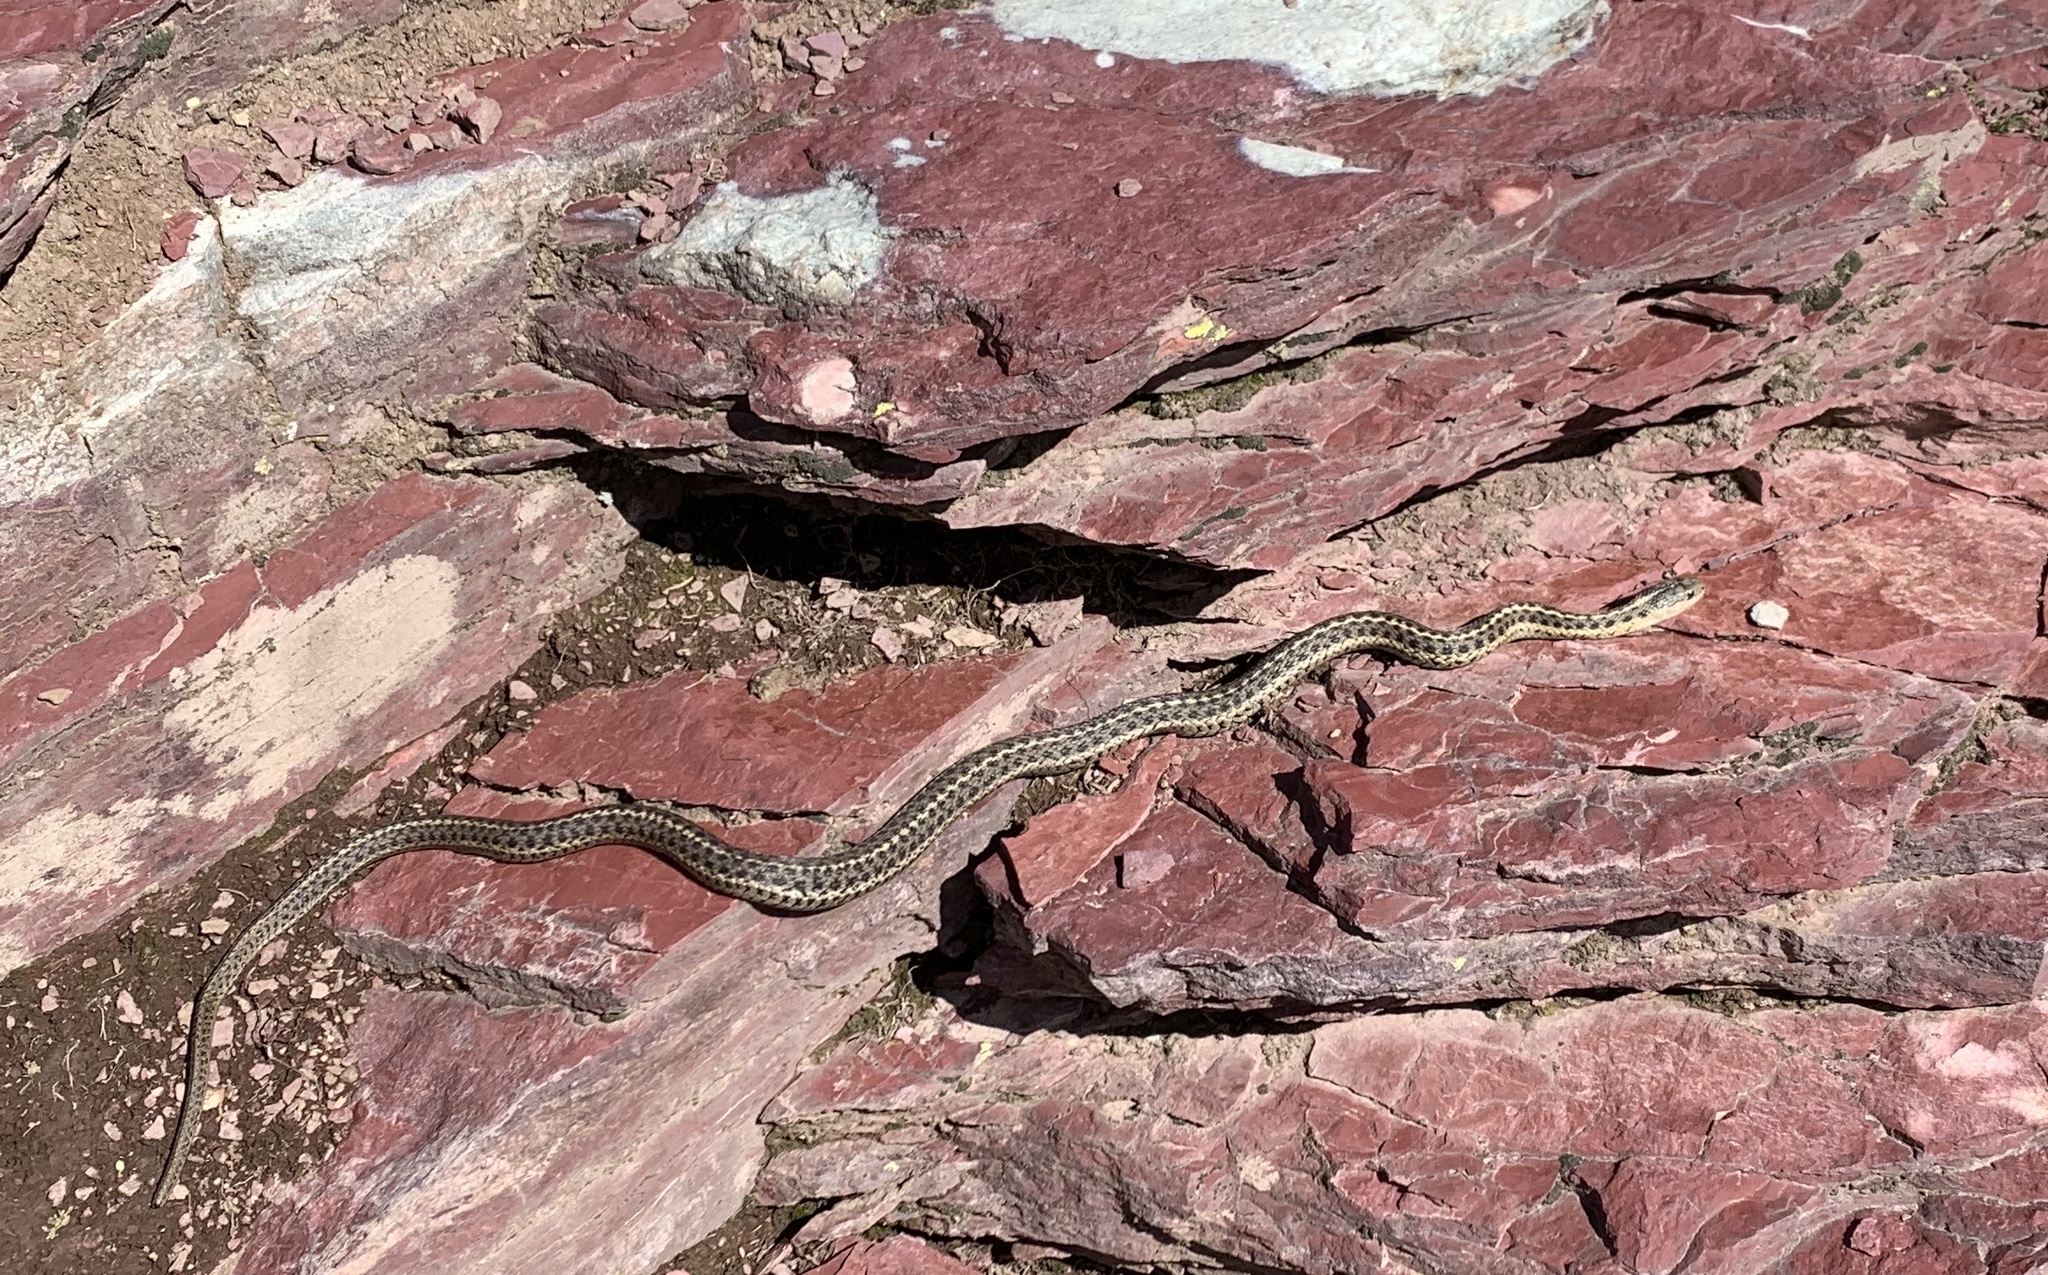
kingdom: Animalia
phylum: Chordata
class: Squamata
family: Colubridae
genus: Thamnophis
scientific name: Thamnophis elegans
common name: Western terrestrial garter snake
